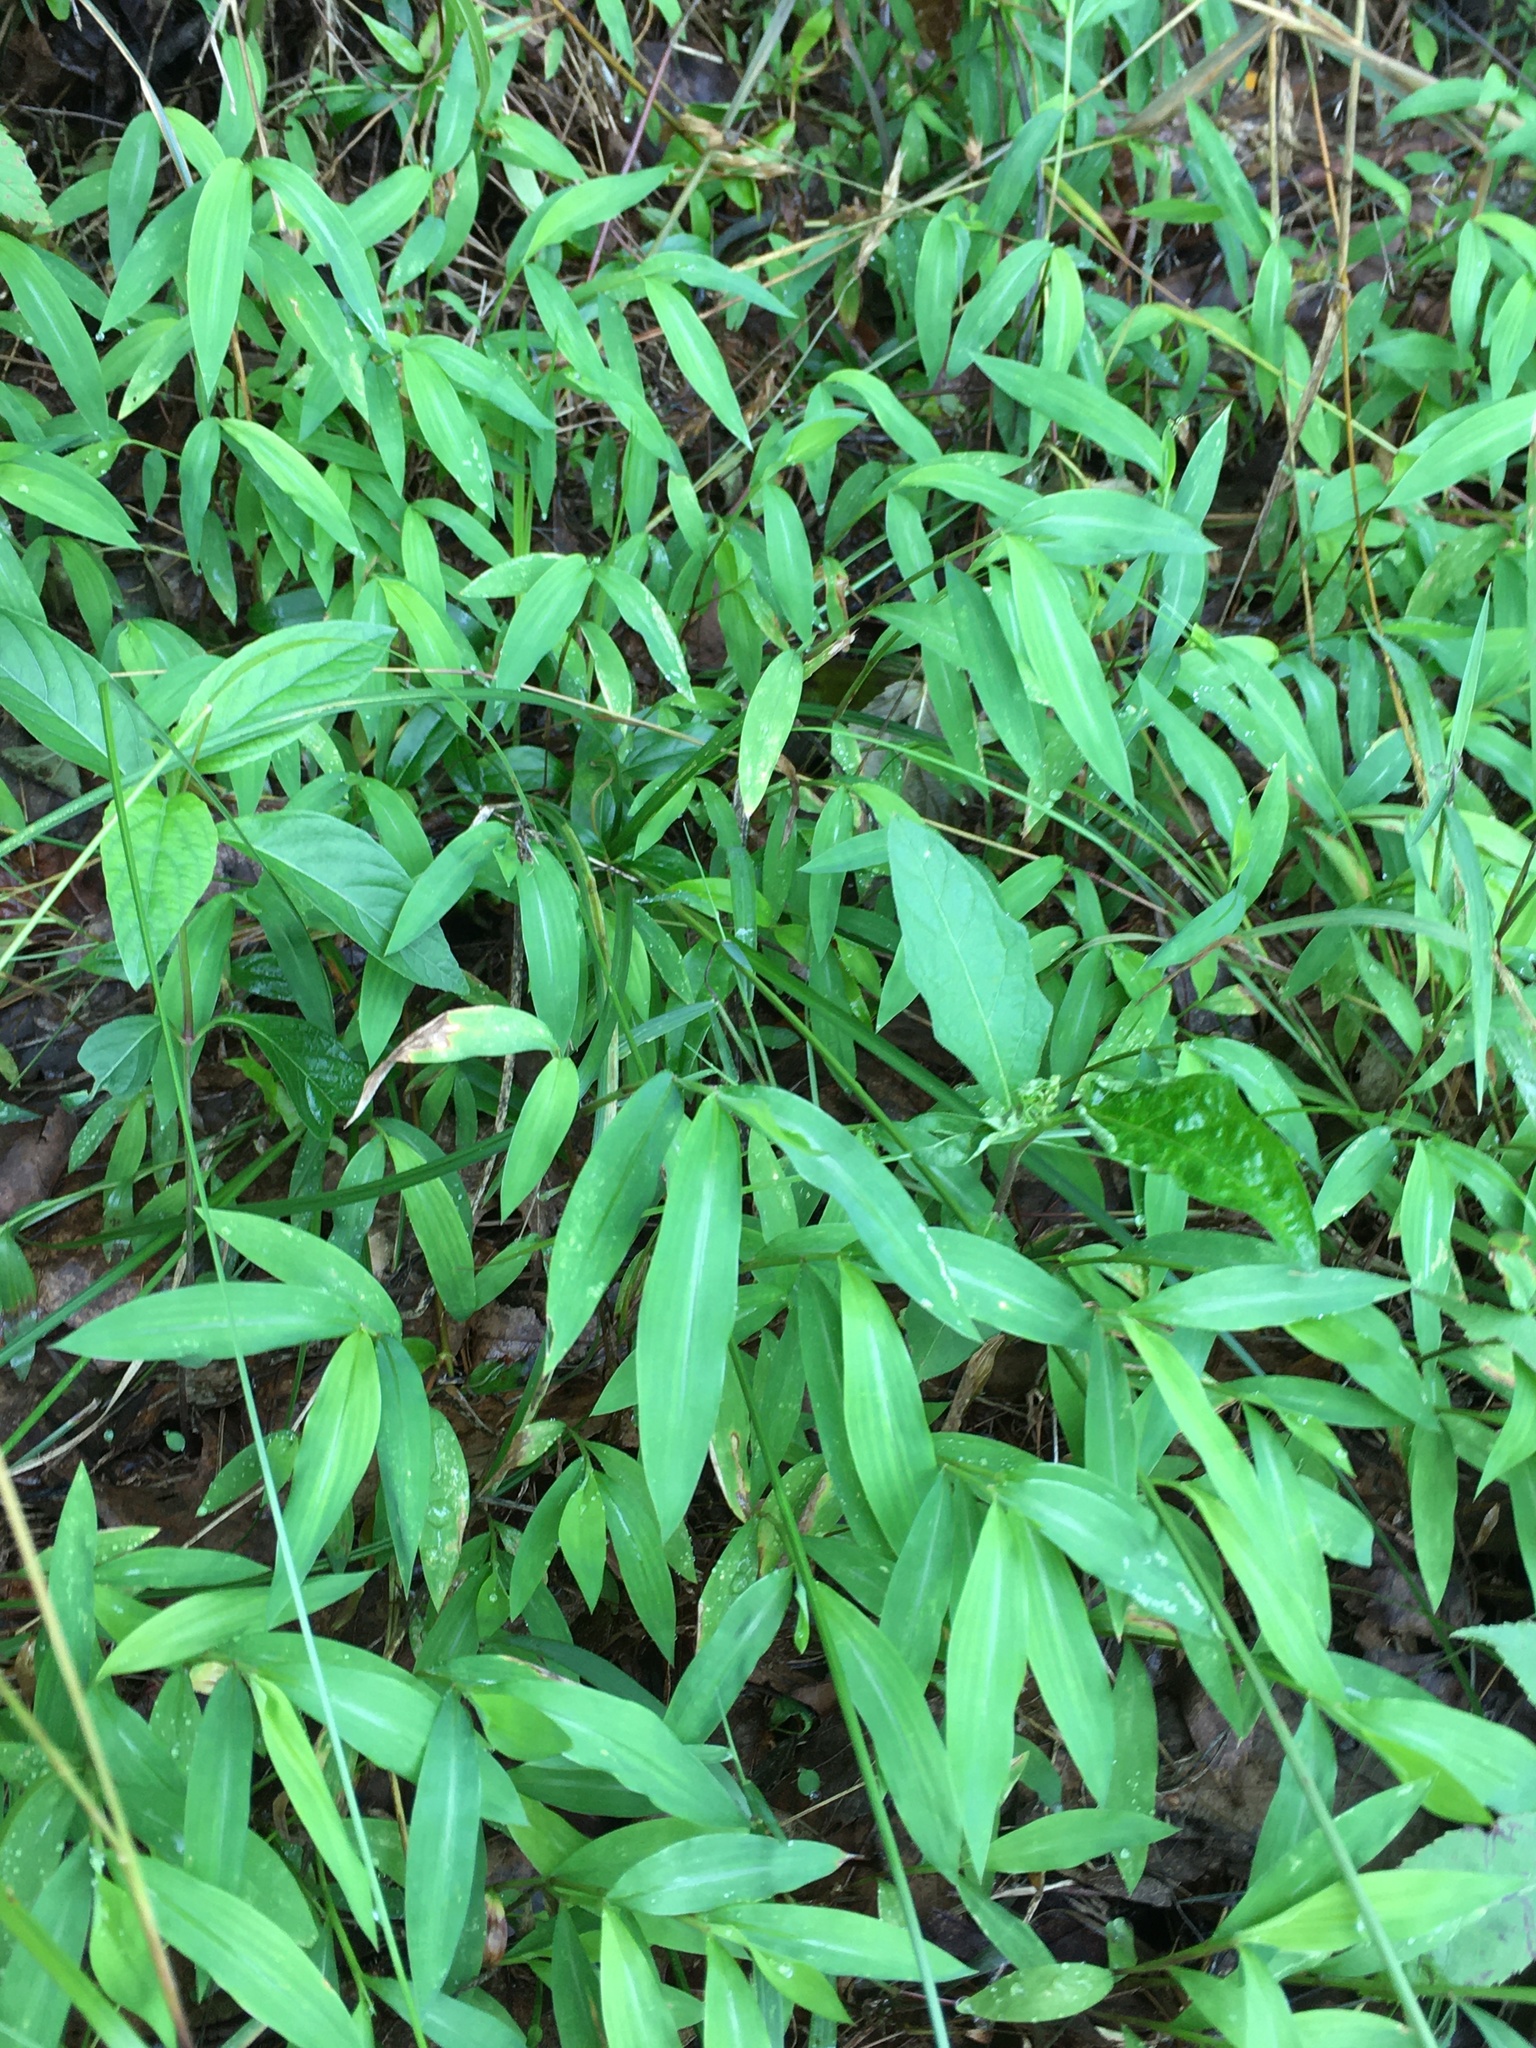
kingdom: Plantae
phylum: Tracheophyta
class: Liliopsida
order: Poales
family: Poaceae
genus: Microstegium
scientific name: Microstegium vimineum
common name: Japanese stiltgrass
